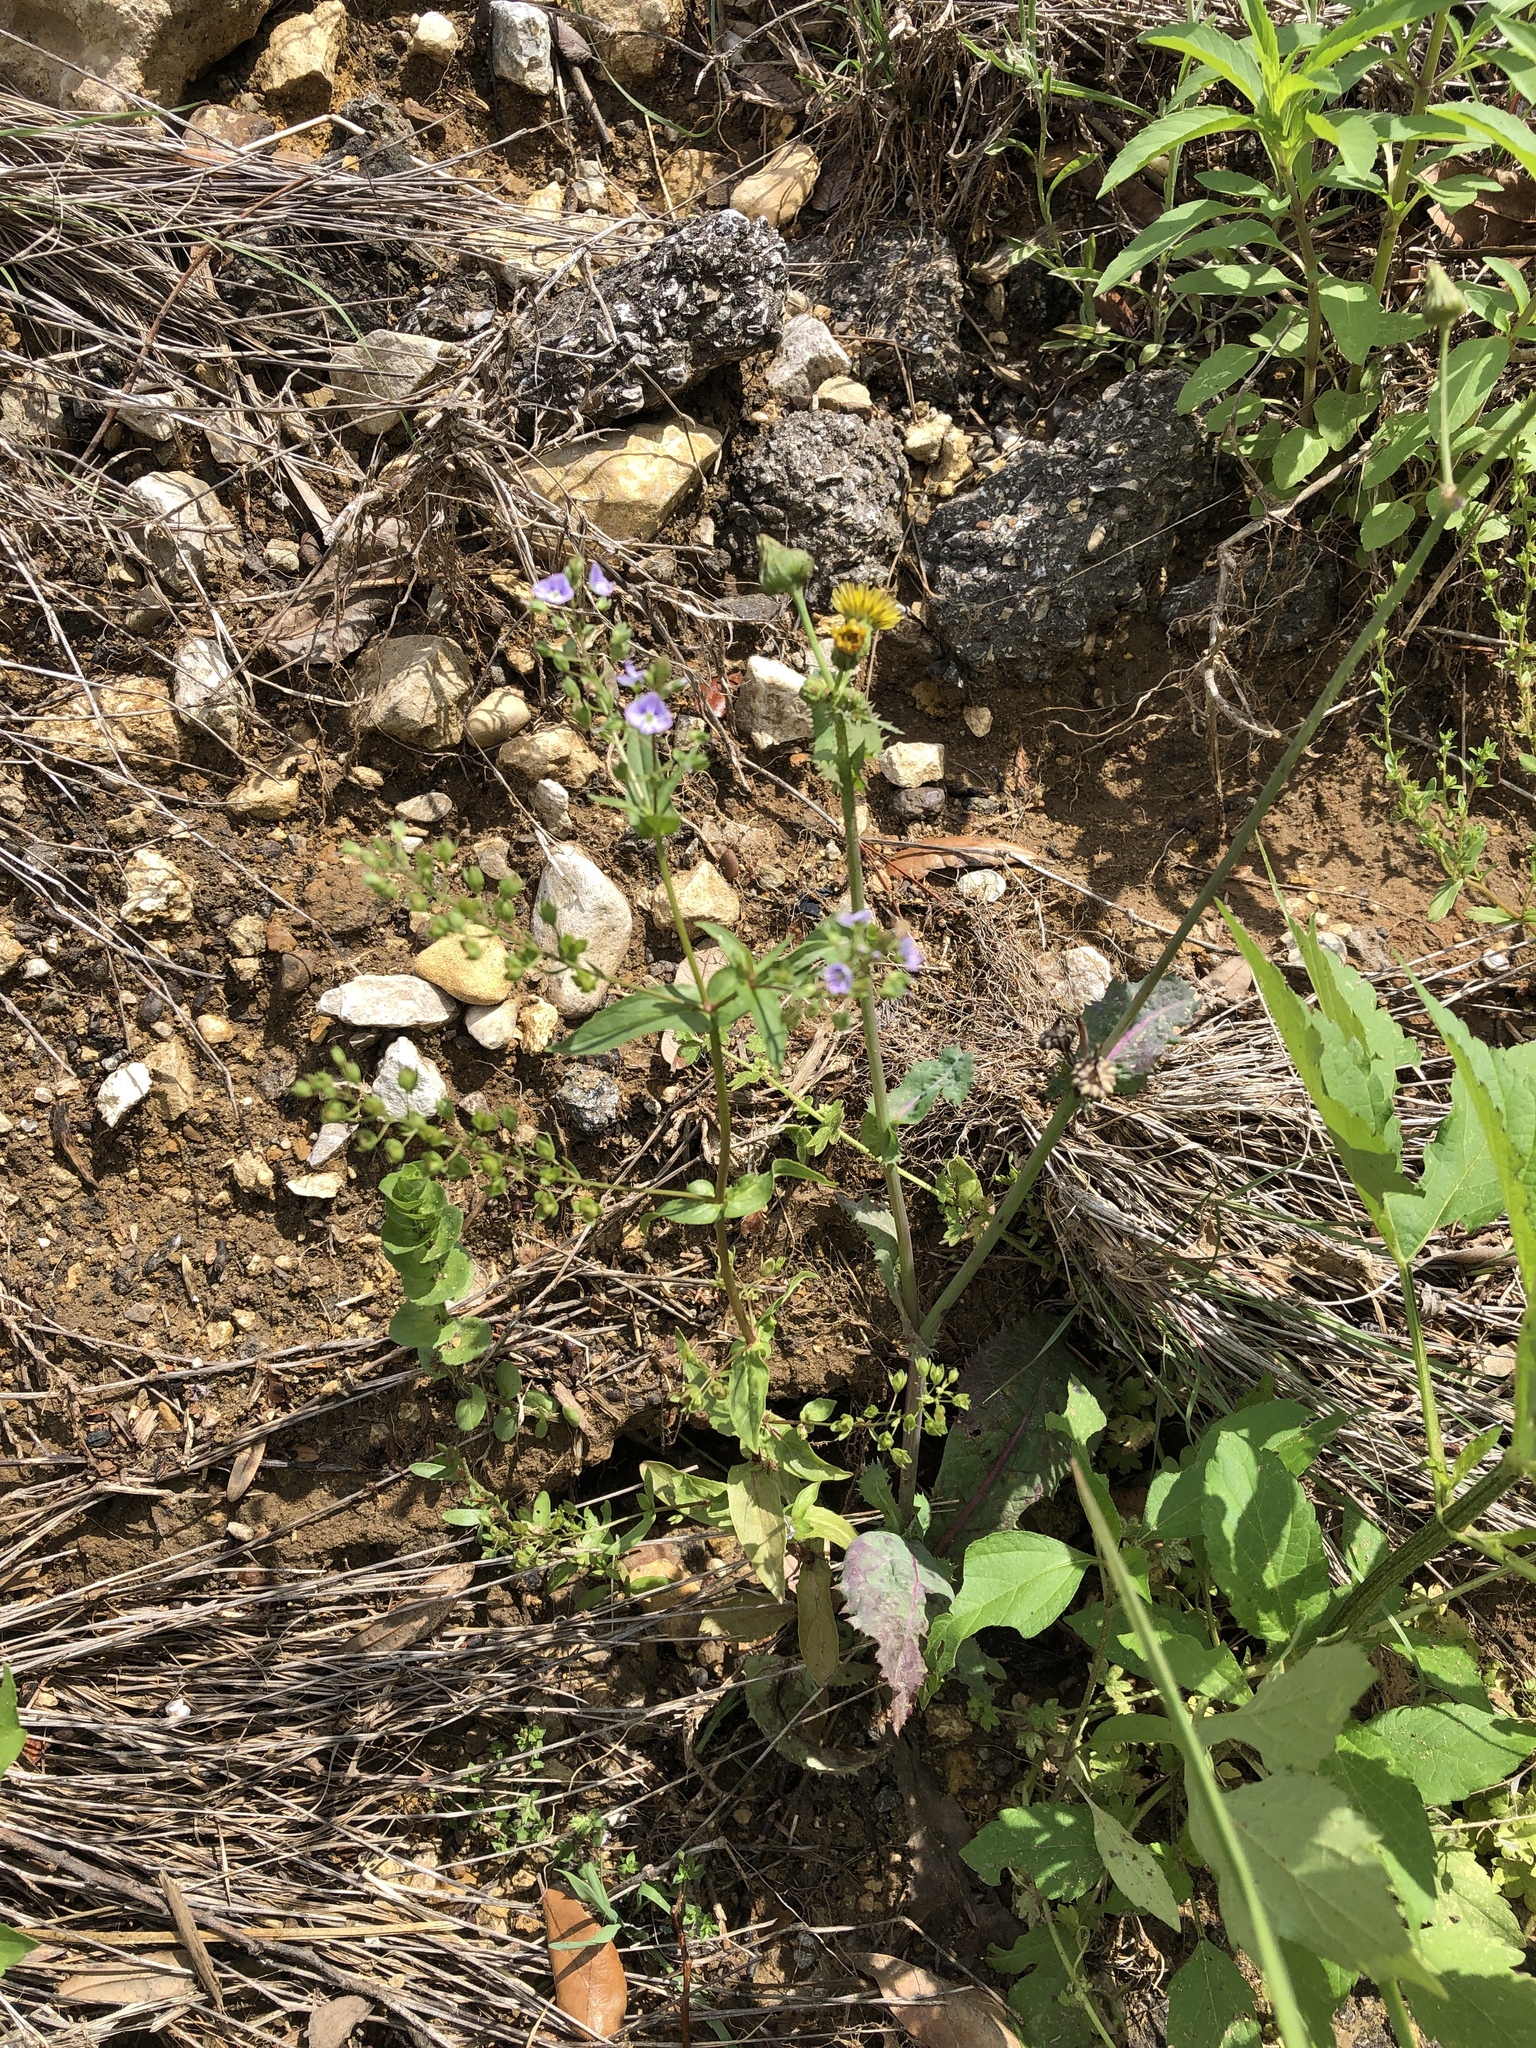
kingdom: Plantae
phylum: Tracheophyta
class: Magnoliopsida
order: Lamiales
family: Plantaginaceae
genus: Veronica
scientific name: Veronica anagallis-aquatica
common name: Water speedwell
